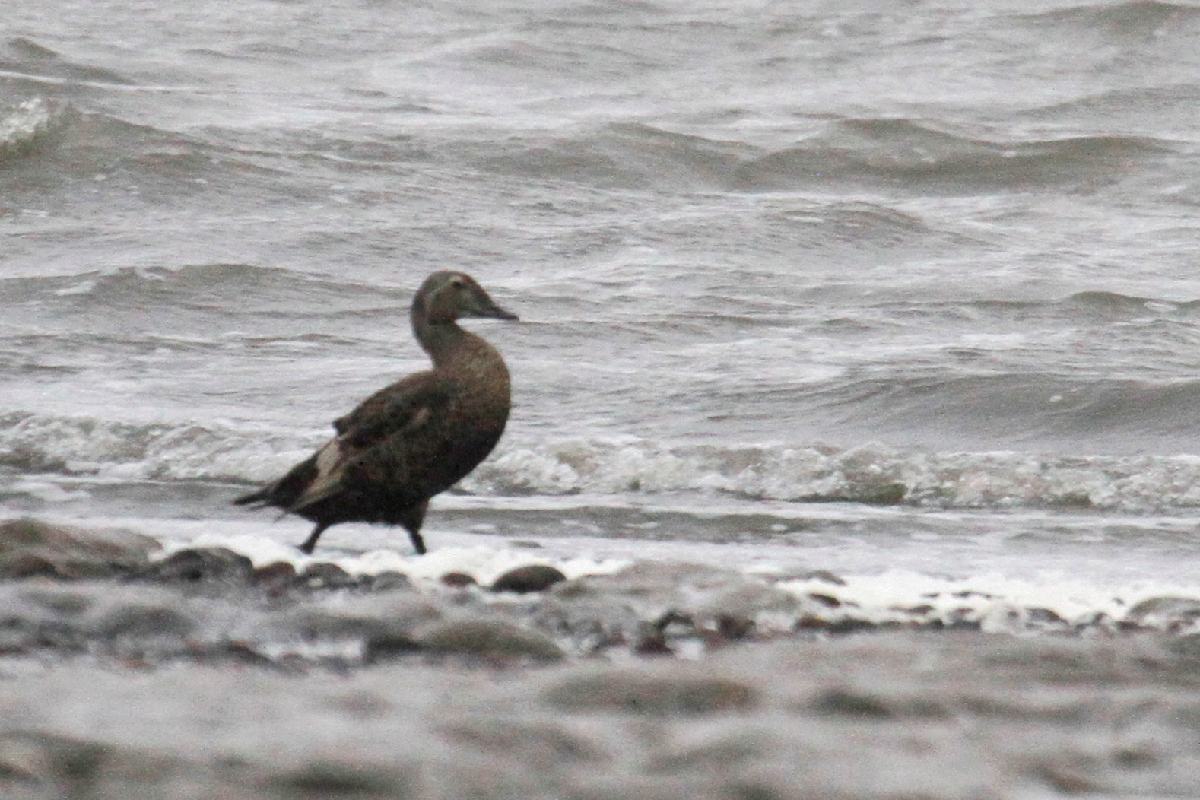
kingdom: Animalia
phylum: Chordata
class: Aves
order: Anseriformes
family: Anatidae
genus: Somateria
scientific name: Somateria spectabilis
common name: King eider
